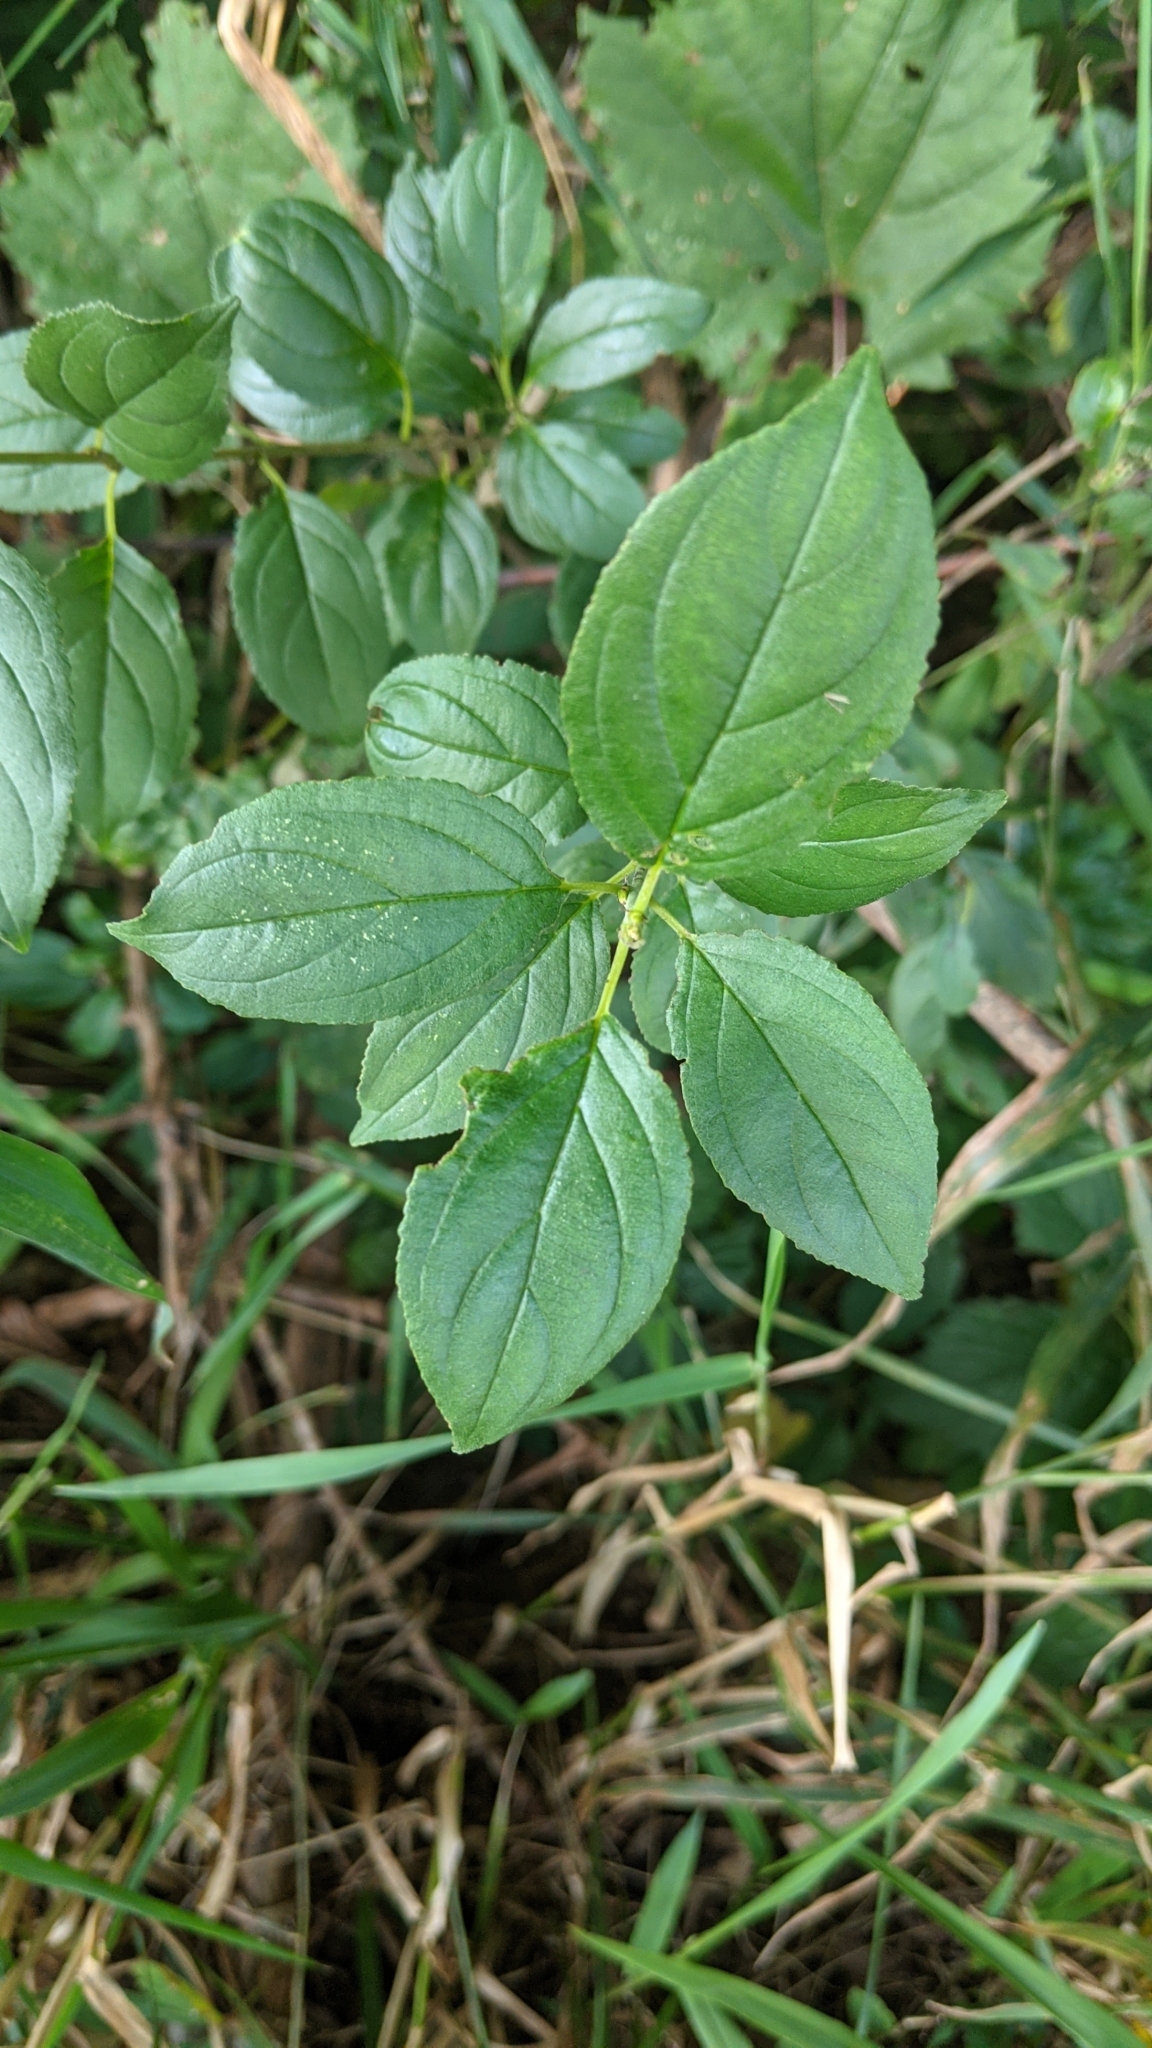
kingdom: Plantae
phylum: Tracheophyta
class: Magnoliopsida
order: Rosales
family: Rhamnaceae
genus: Rhamnus
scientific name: Rhamnus cathartica
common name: Common buckthorn
